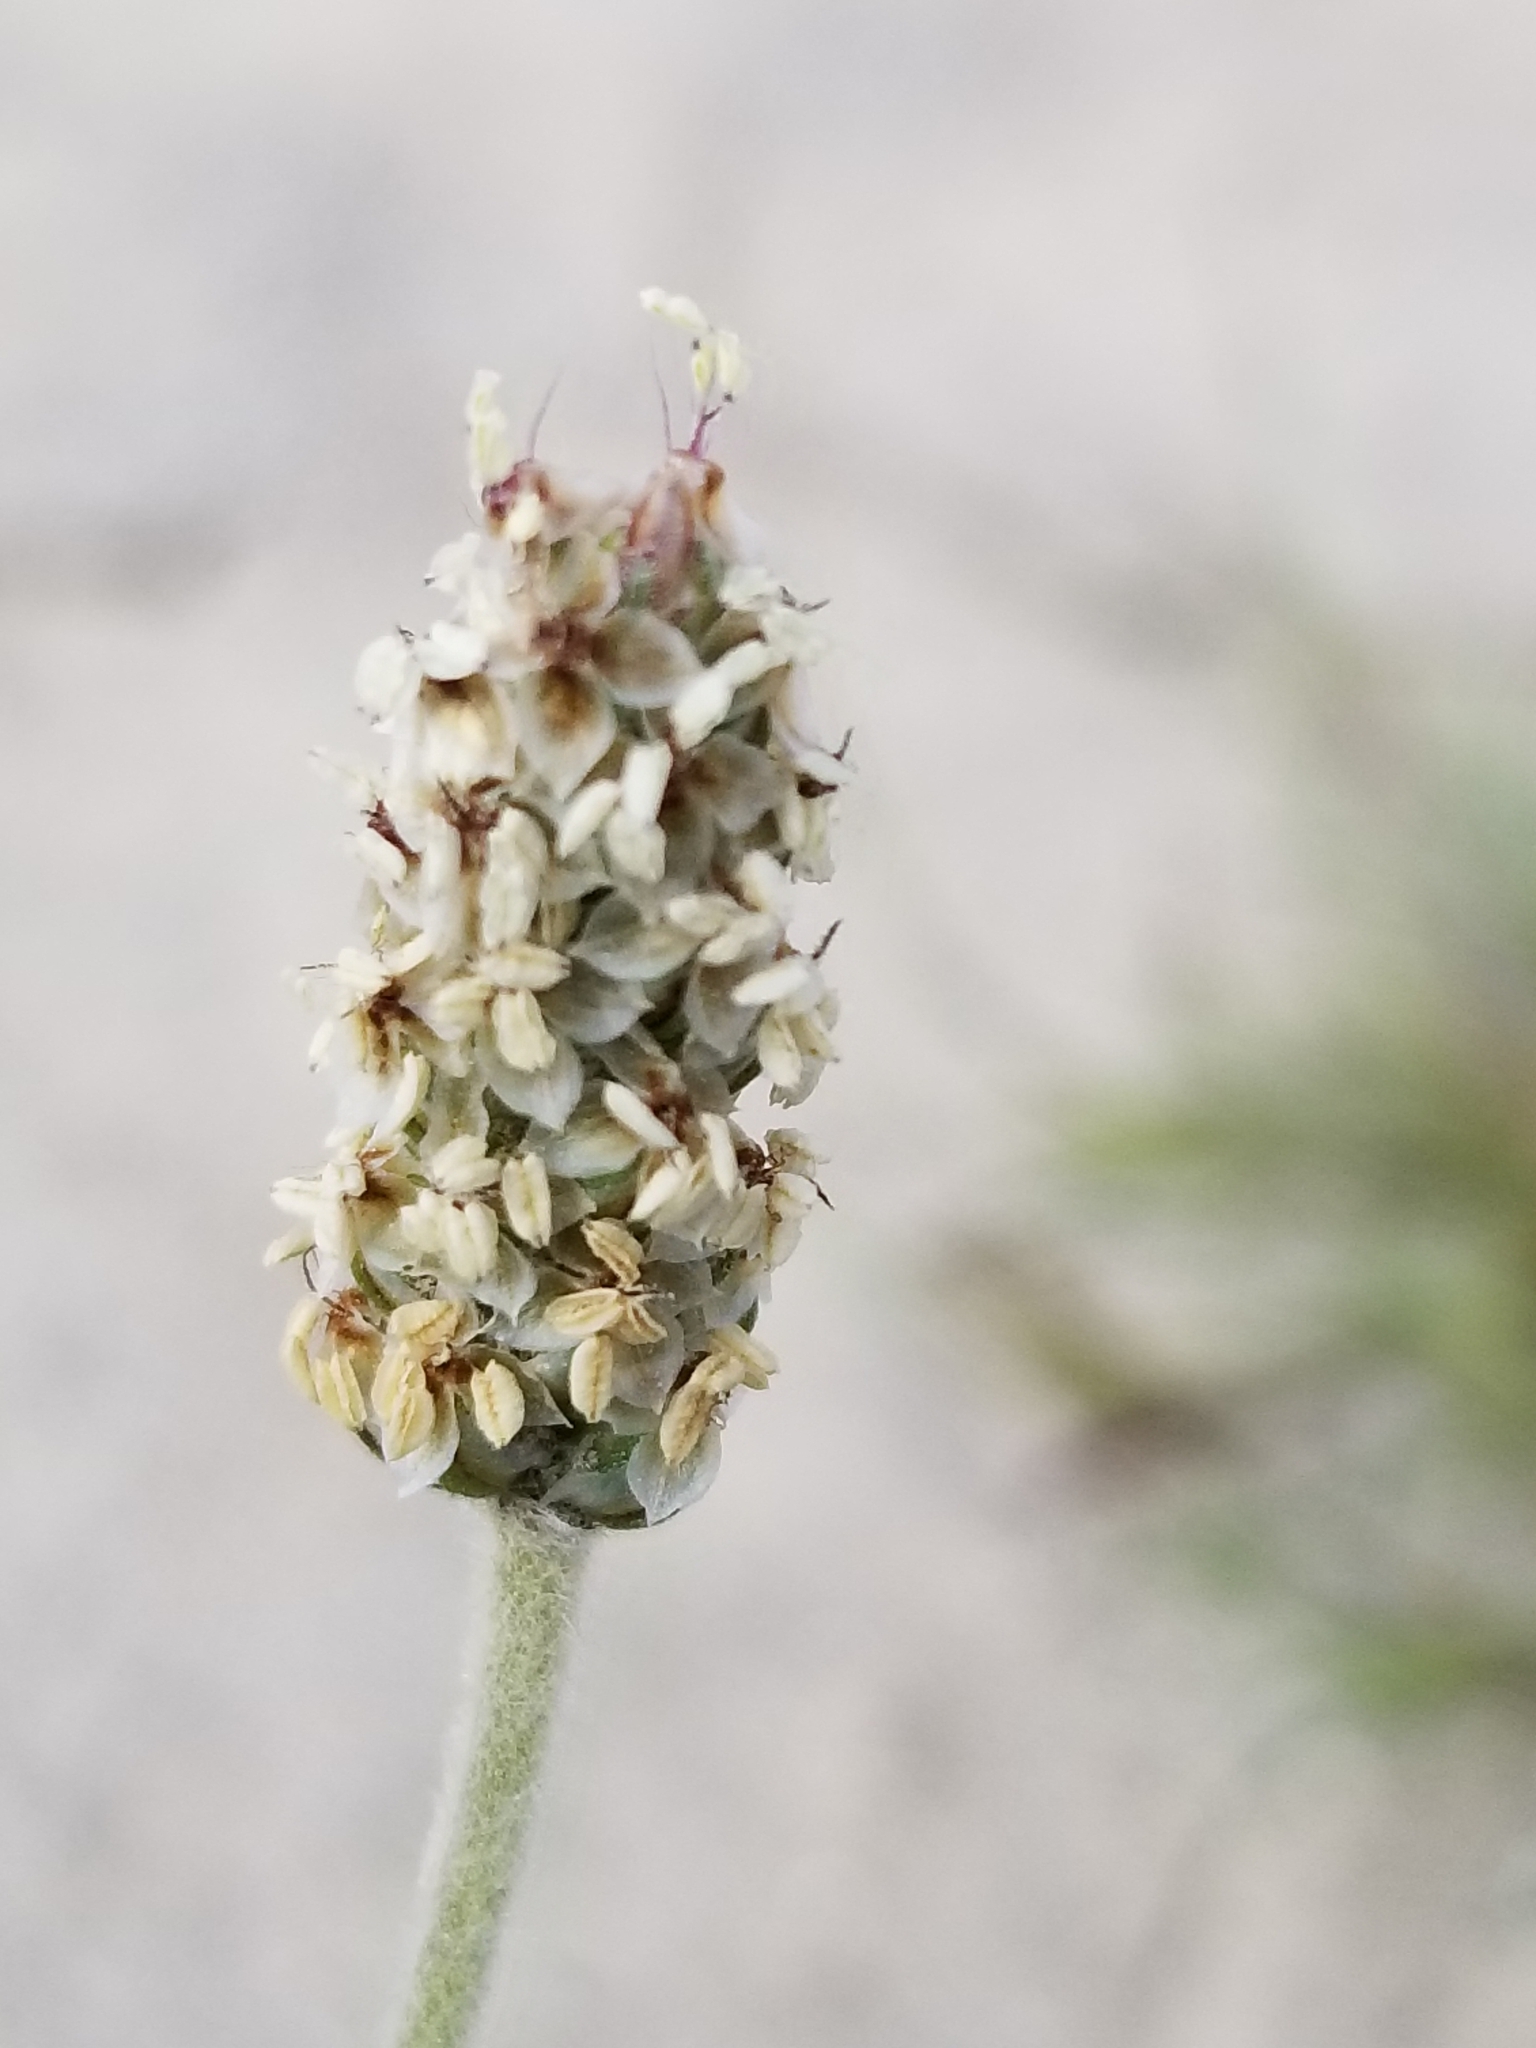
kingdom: Plantae
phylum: Tracheophyta
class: Magnoliopsida
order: Lamiales
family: Plantaginaceae
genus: Plantago
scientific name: Plantago ovata
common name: Blond plantain
